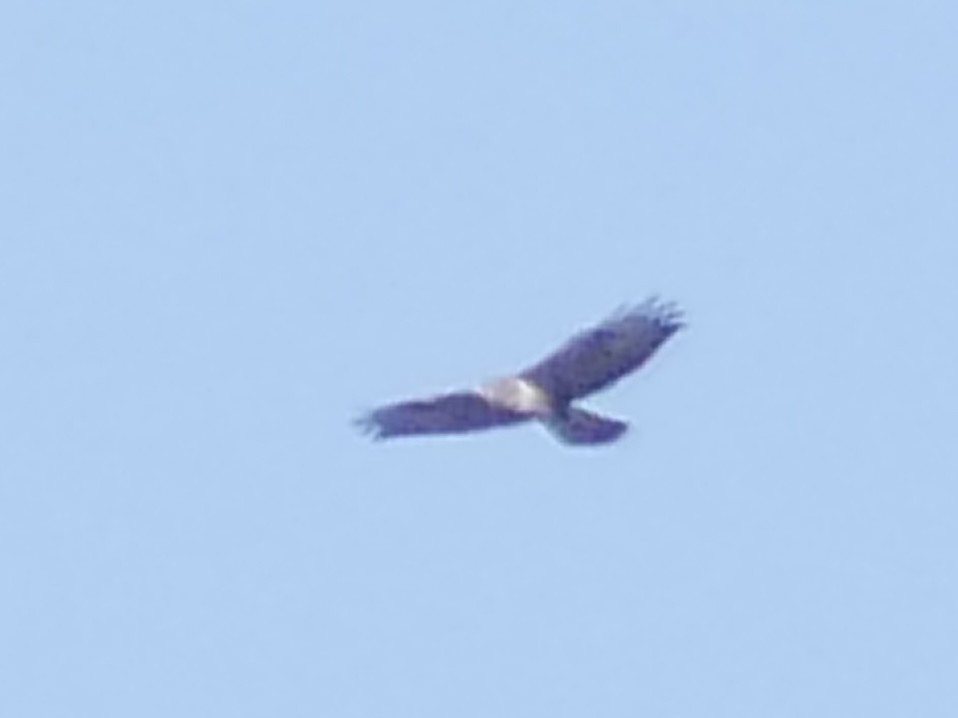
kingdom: Animalia
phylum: Chordata
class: Aves
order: Accipitriformes
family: Accipitridae
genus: Buteo
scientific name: Buteo buteo
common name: Common buzzard
